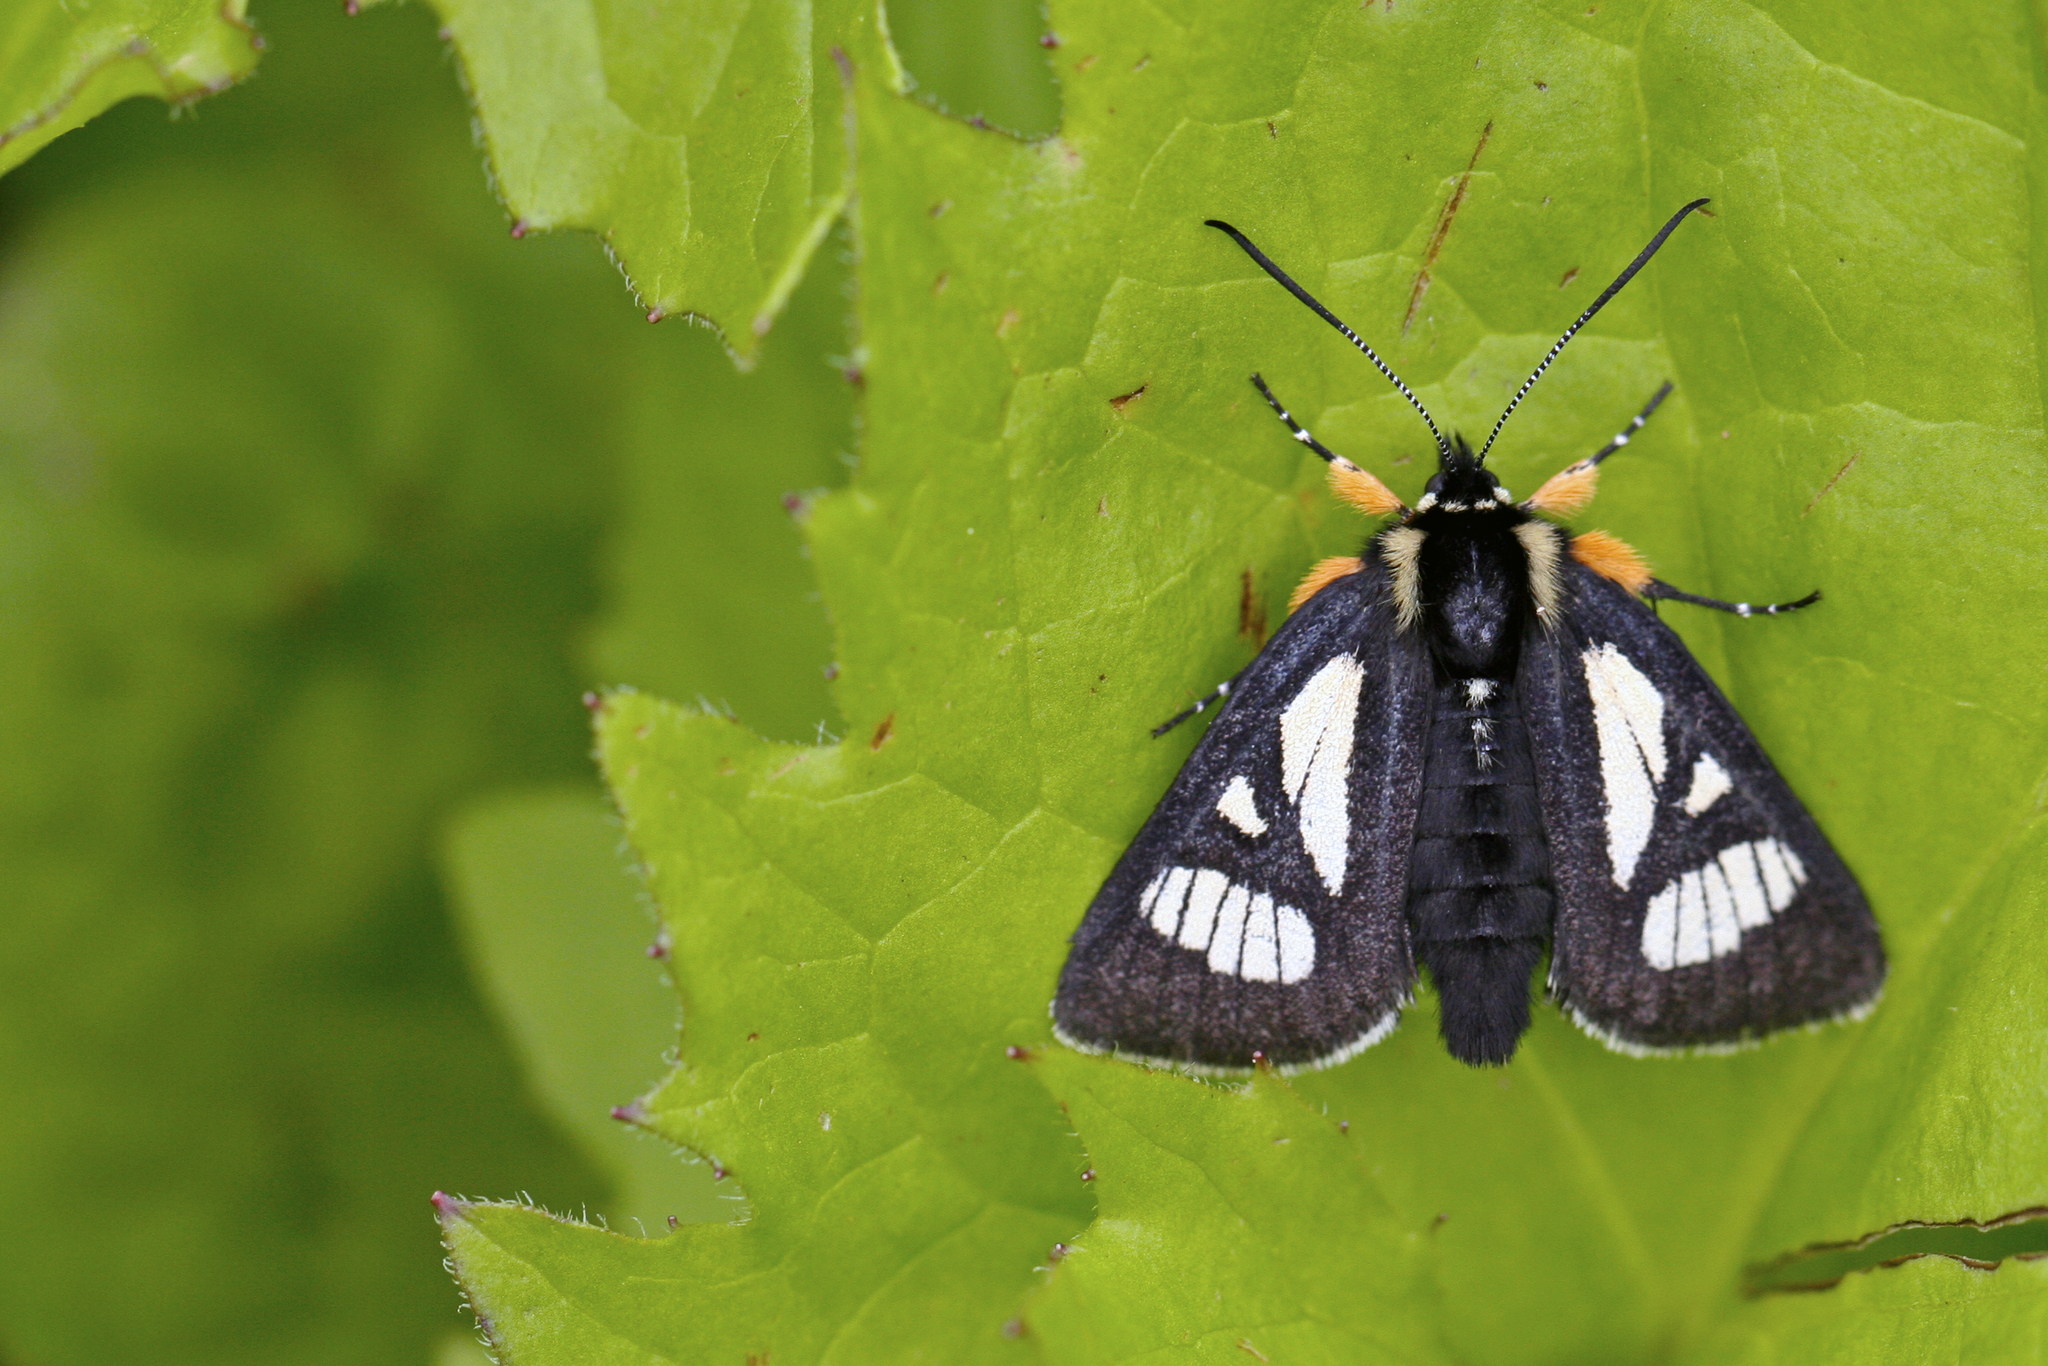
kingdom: Animalia
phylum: Arthropoda
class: Insecta
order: Lepidoptera
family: Noctuidae
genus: Alypia
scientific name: Alypia maccullochii
